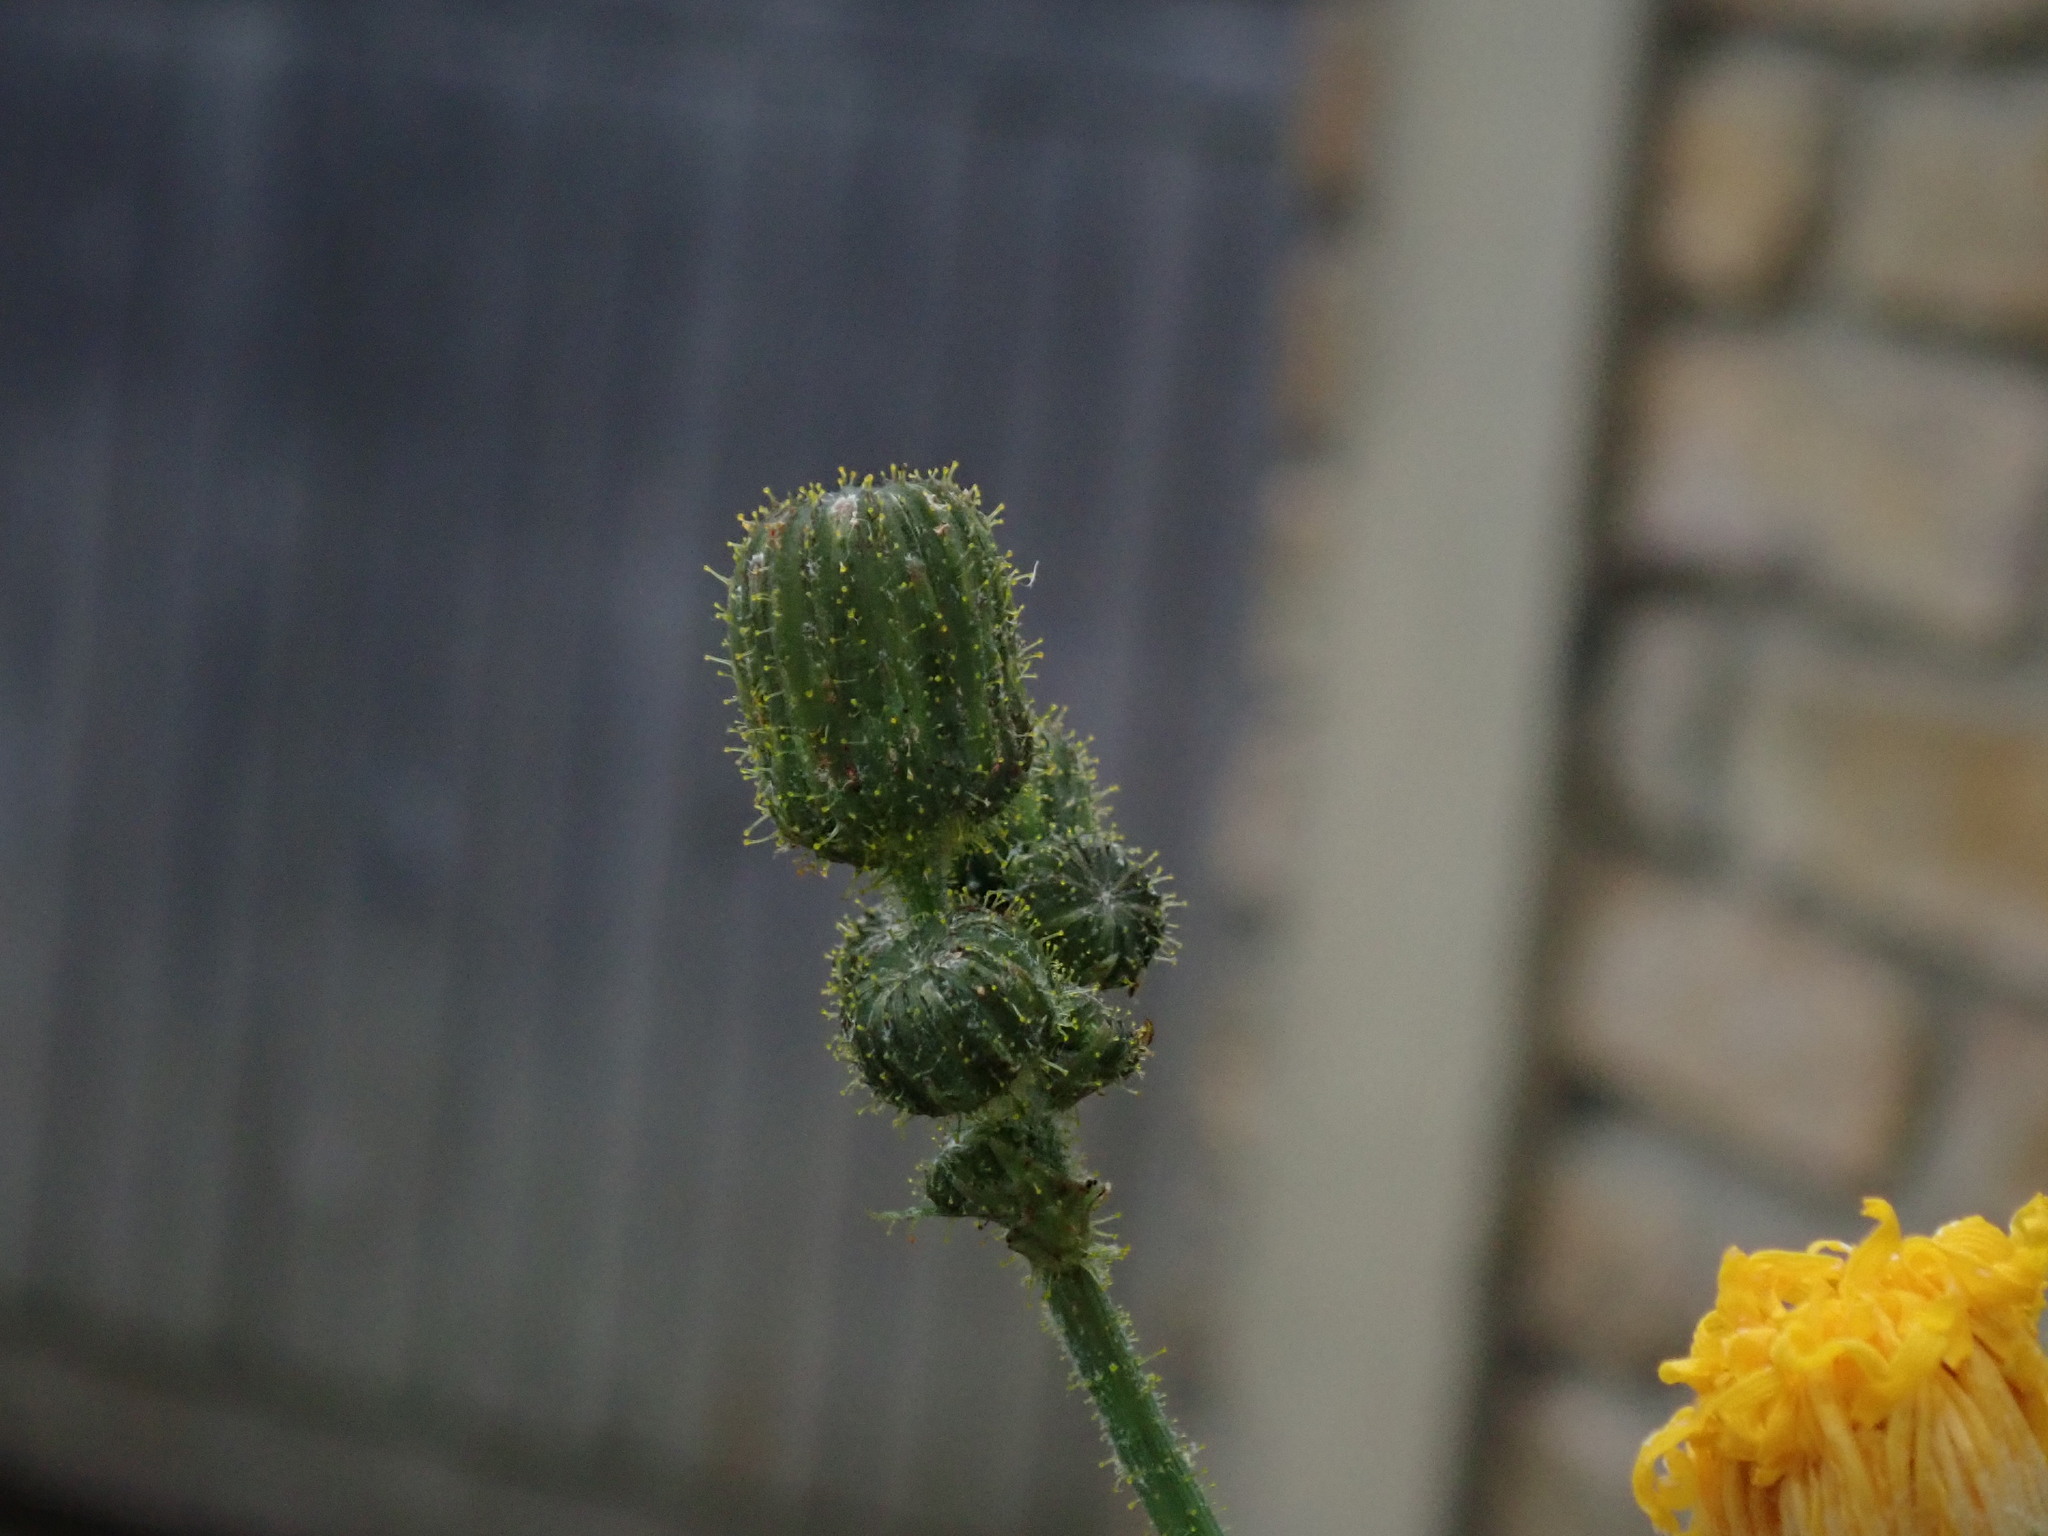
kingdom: Plantae
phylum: Tracheophyta
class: Magnoliopsida
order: Asterales
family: Asteraceae
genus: Sonchus
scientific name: Sonchus arvensis
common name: Perennial sow-thistle
